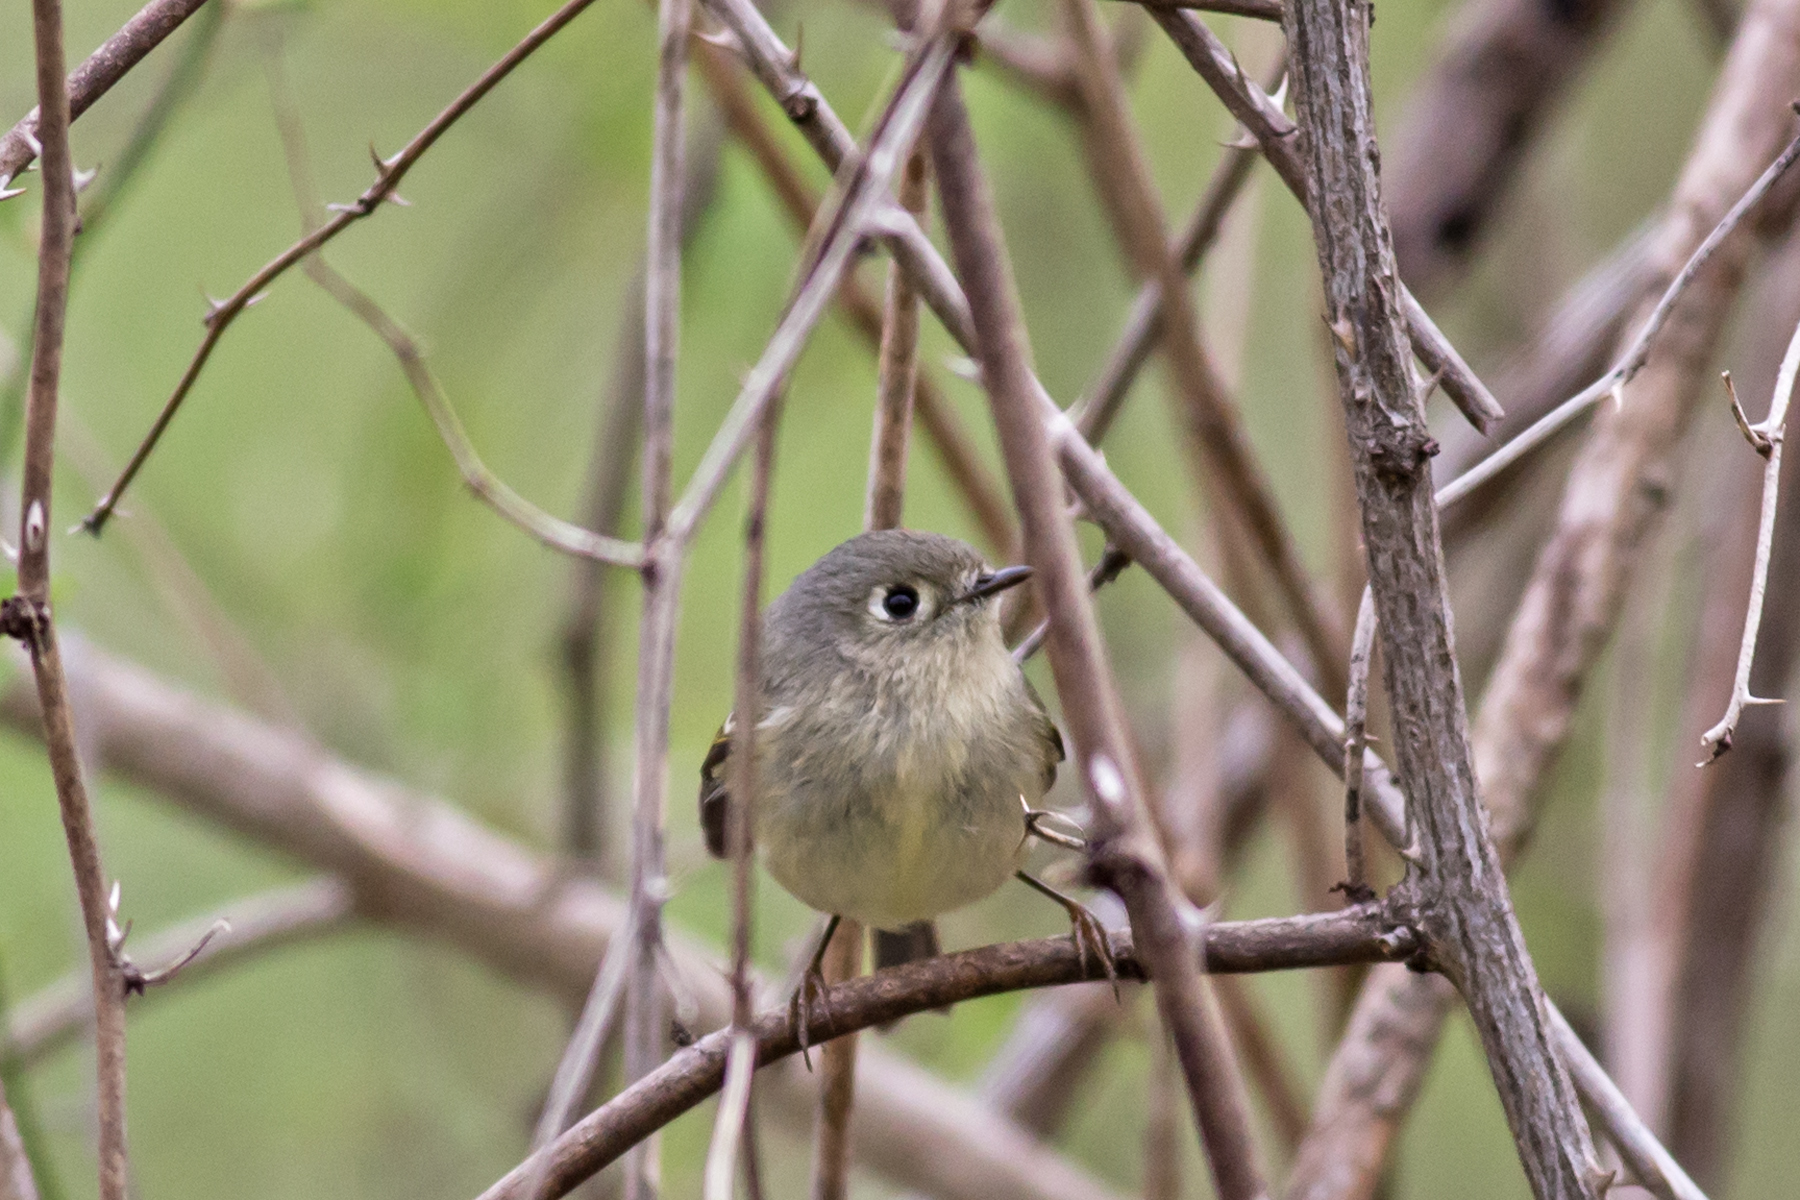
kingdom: Animalia
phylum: Chordata
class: Aves
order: Passeriformes
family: Regulidae
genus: Regulus
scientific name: Regulus calendula
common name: Ruby-crowned kinglet
